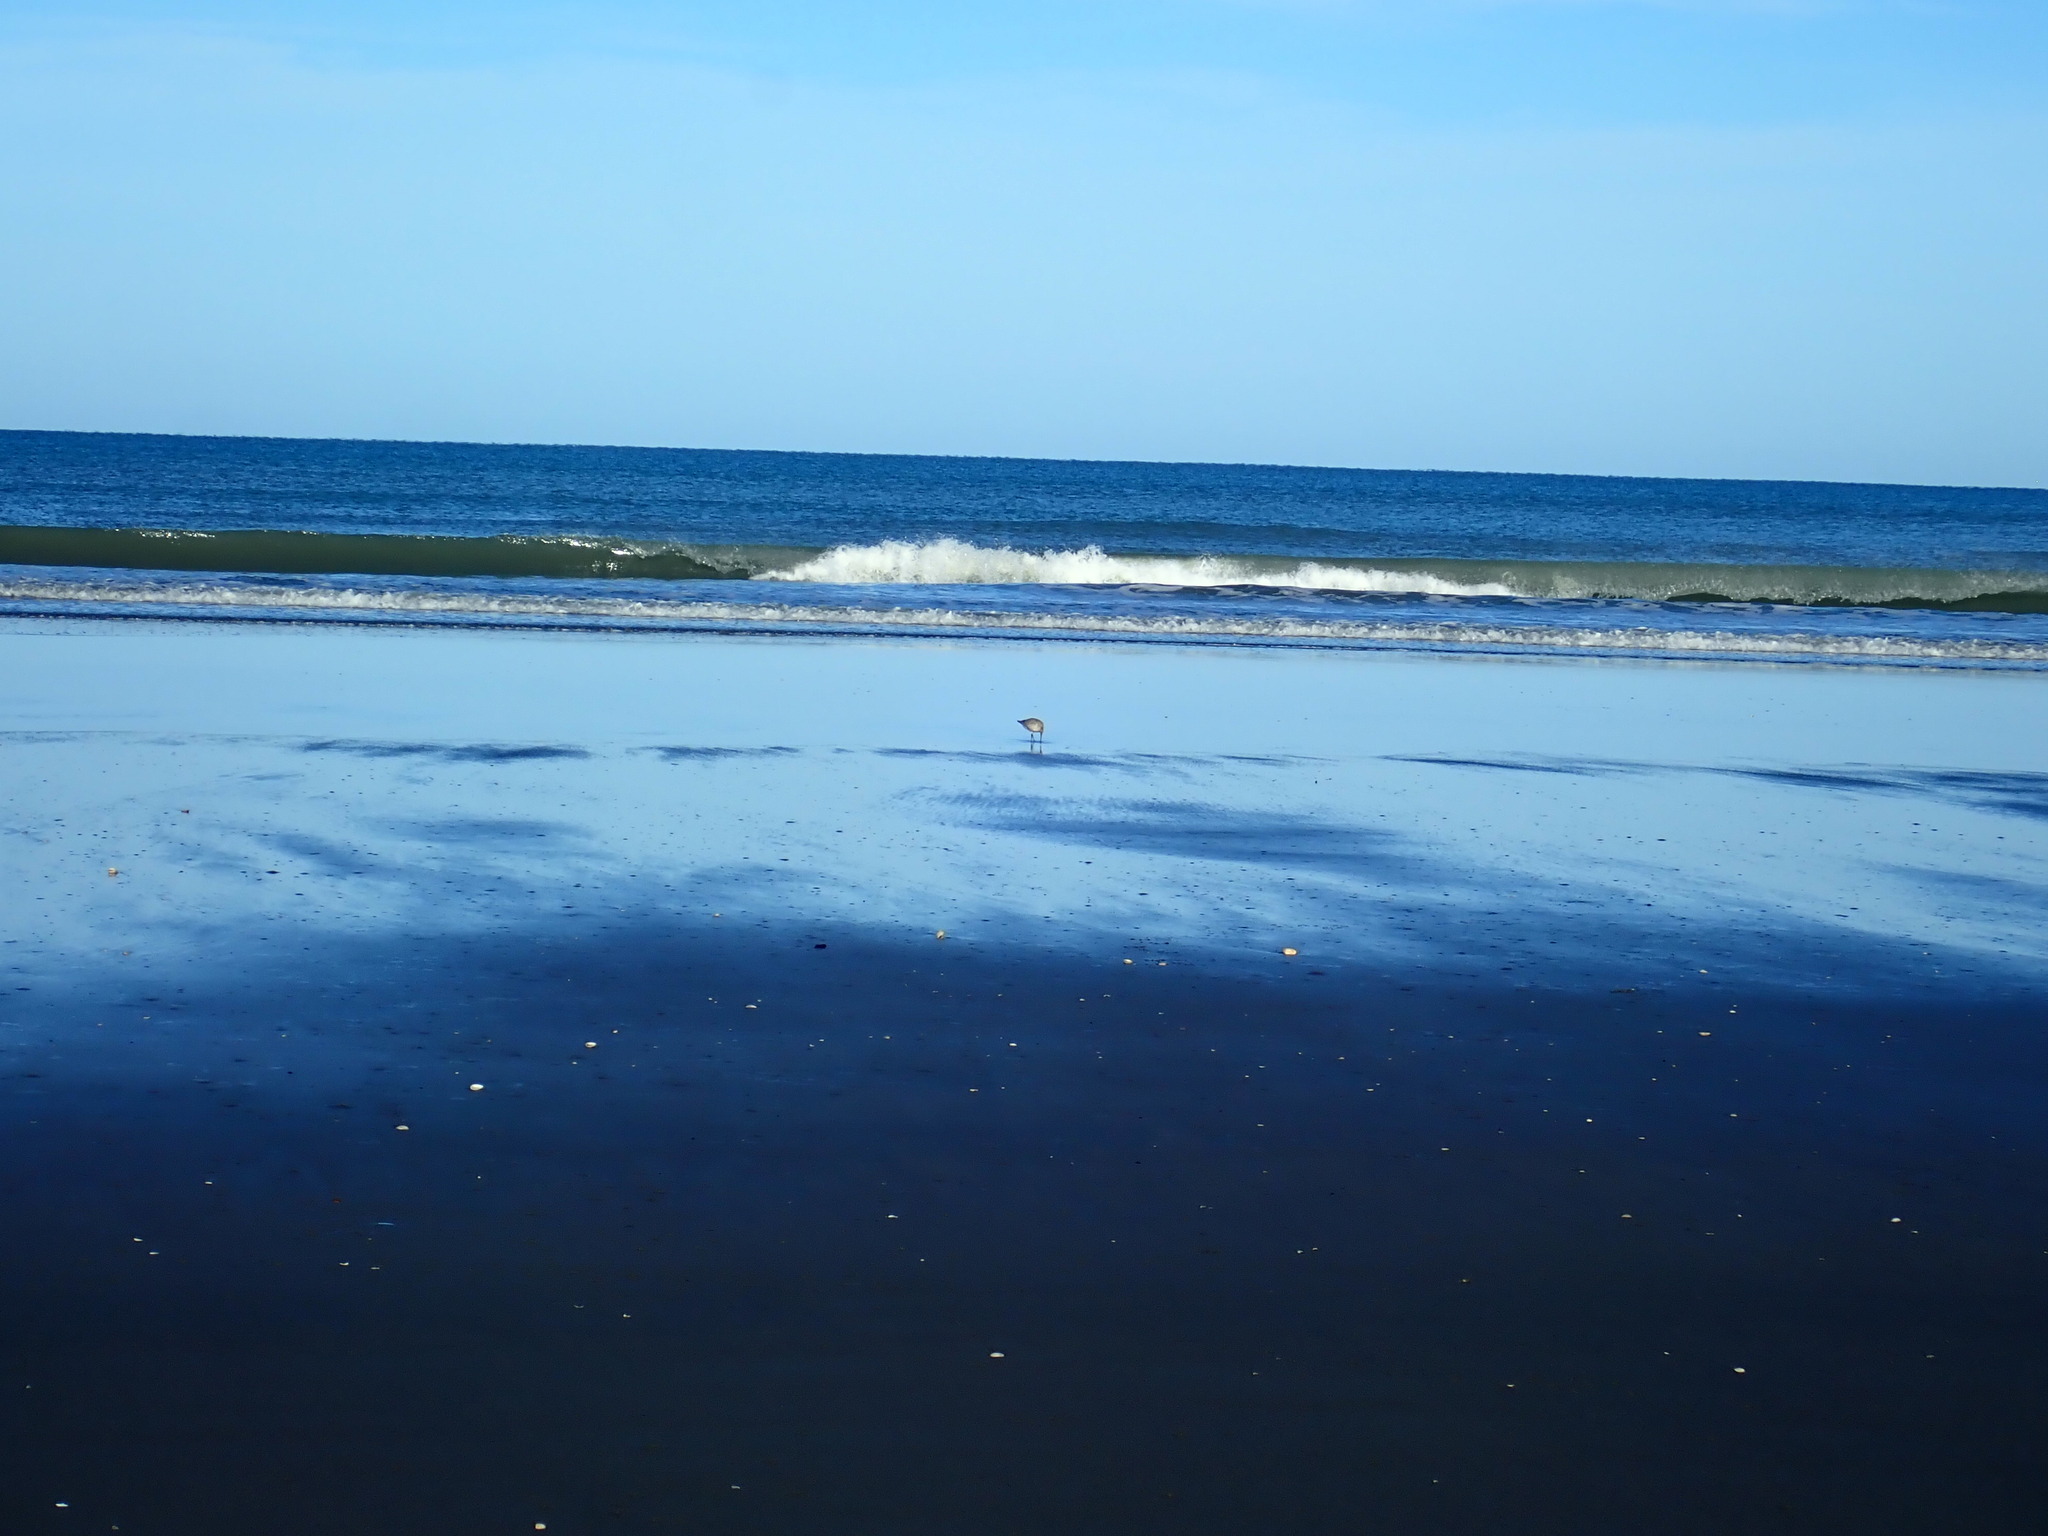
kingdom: Animalia
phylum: Chordata
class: Aves
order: Charadriiformes
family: Scolopacidae
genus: Limosa
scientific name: Limosa lapponica
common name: Bar-tailed godwit
